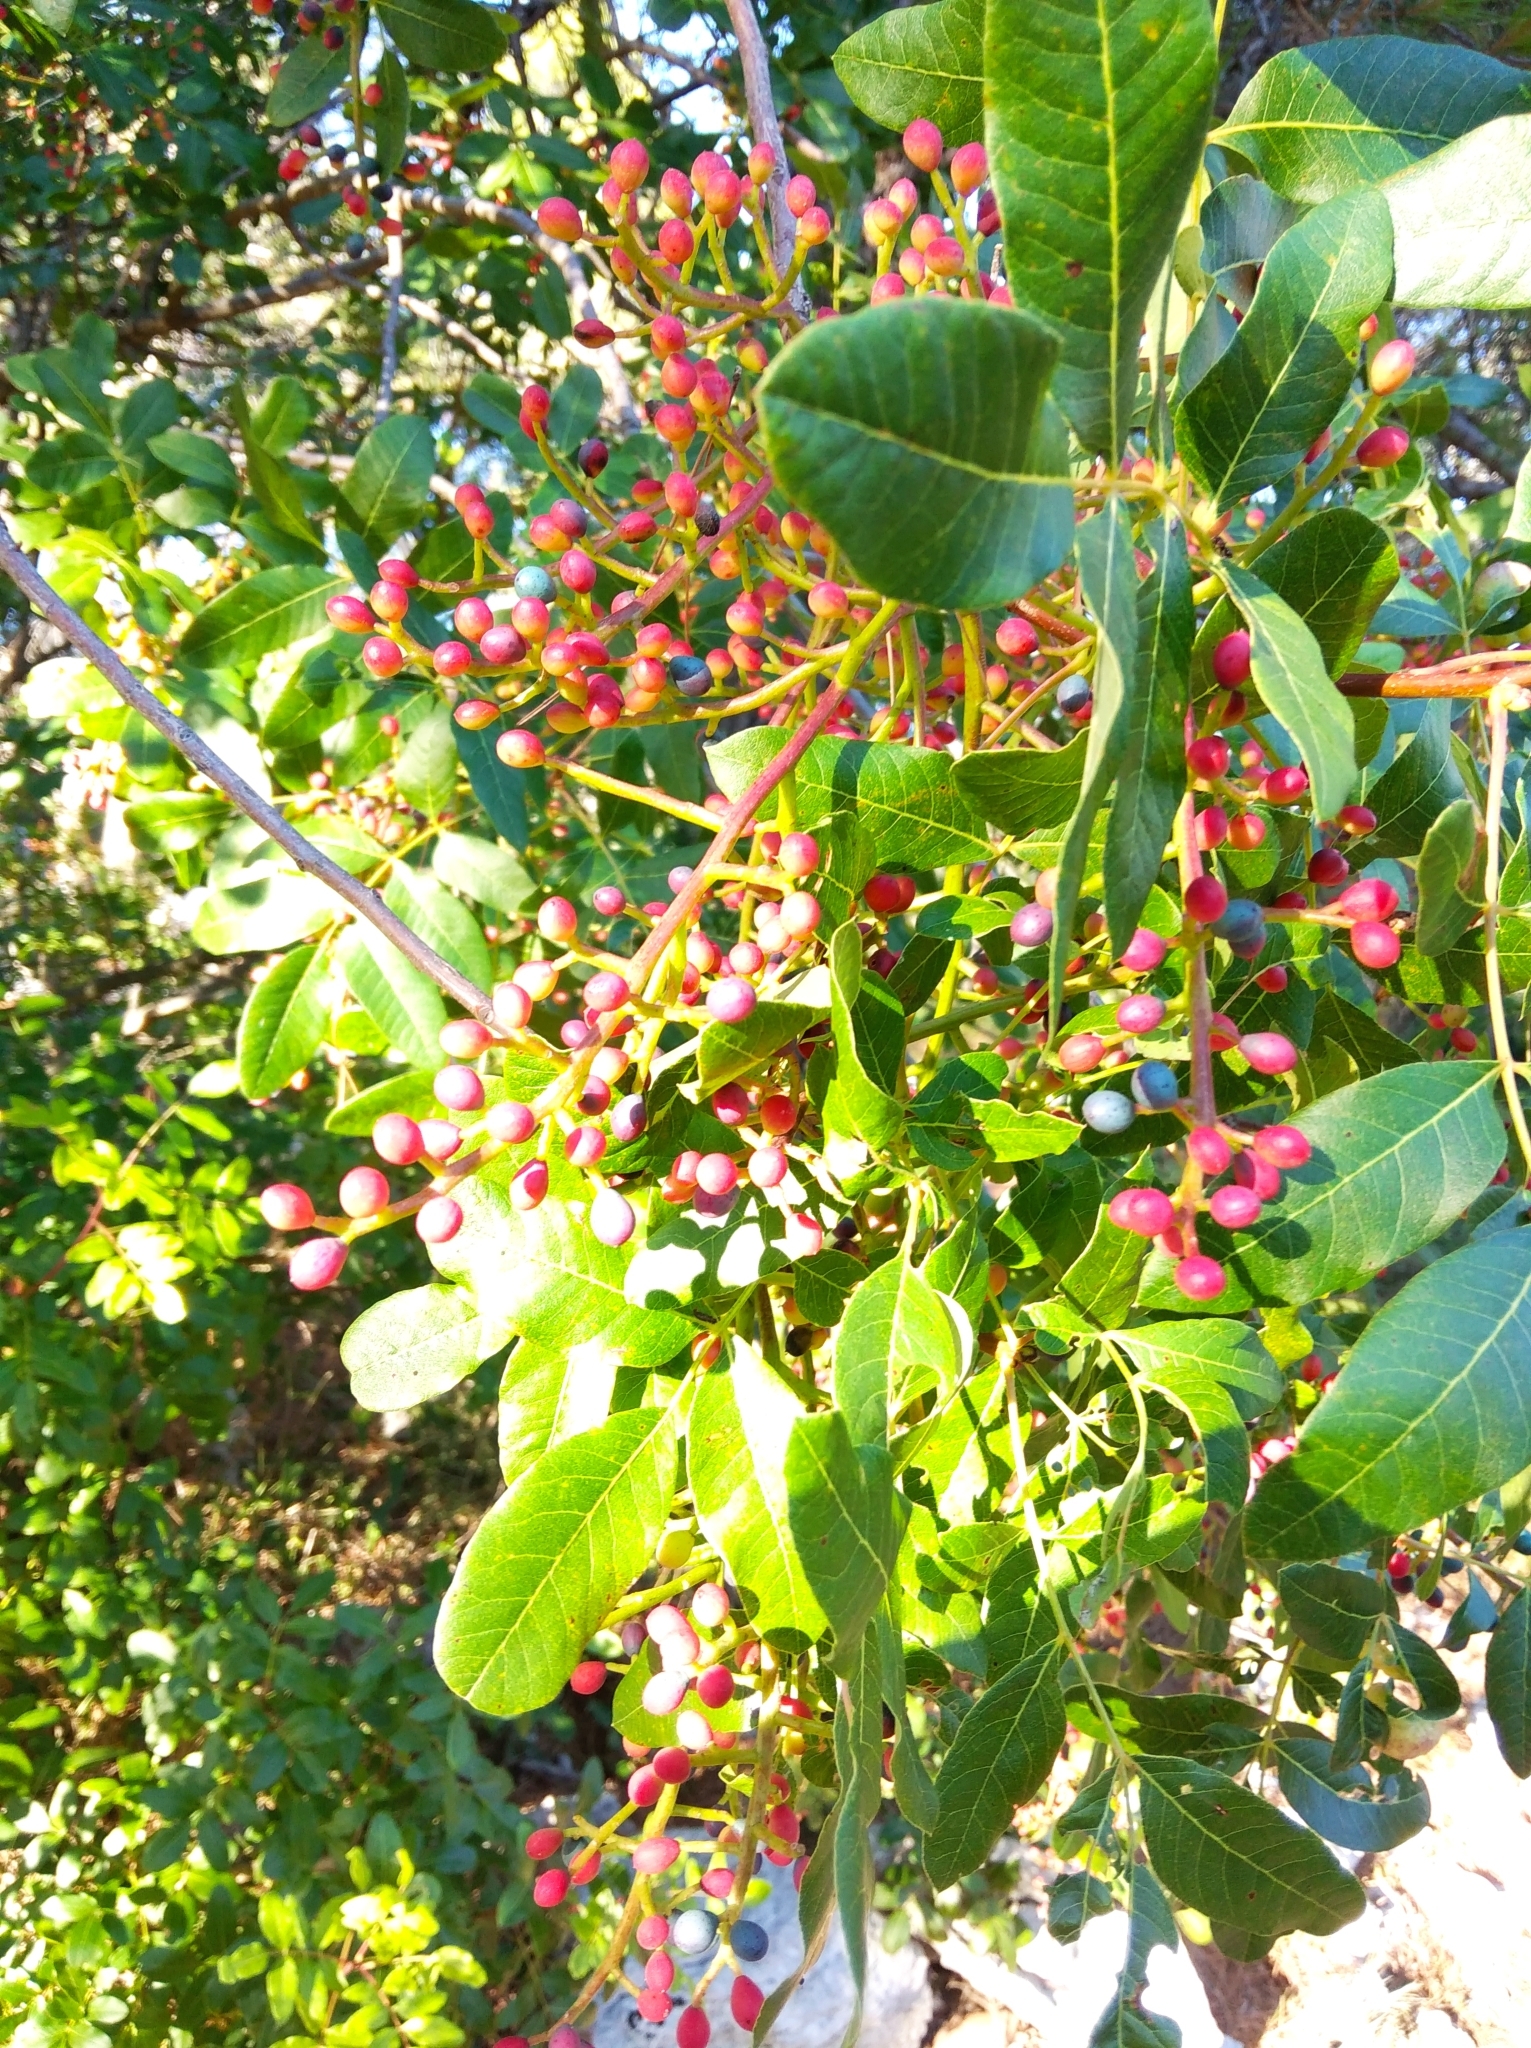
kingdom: Plantae
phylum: Tracheophyta
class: Magnoliopsida
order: Sapindales
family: Anacardiaceae
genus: Pistacia
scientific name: Pistacia terebinthus
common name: Terebinth
